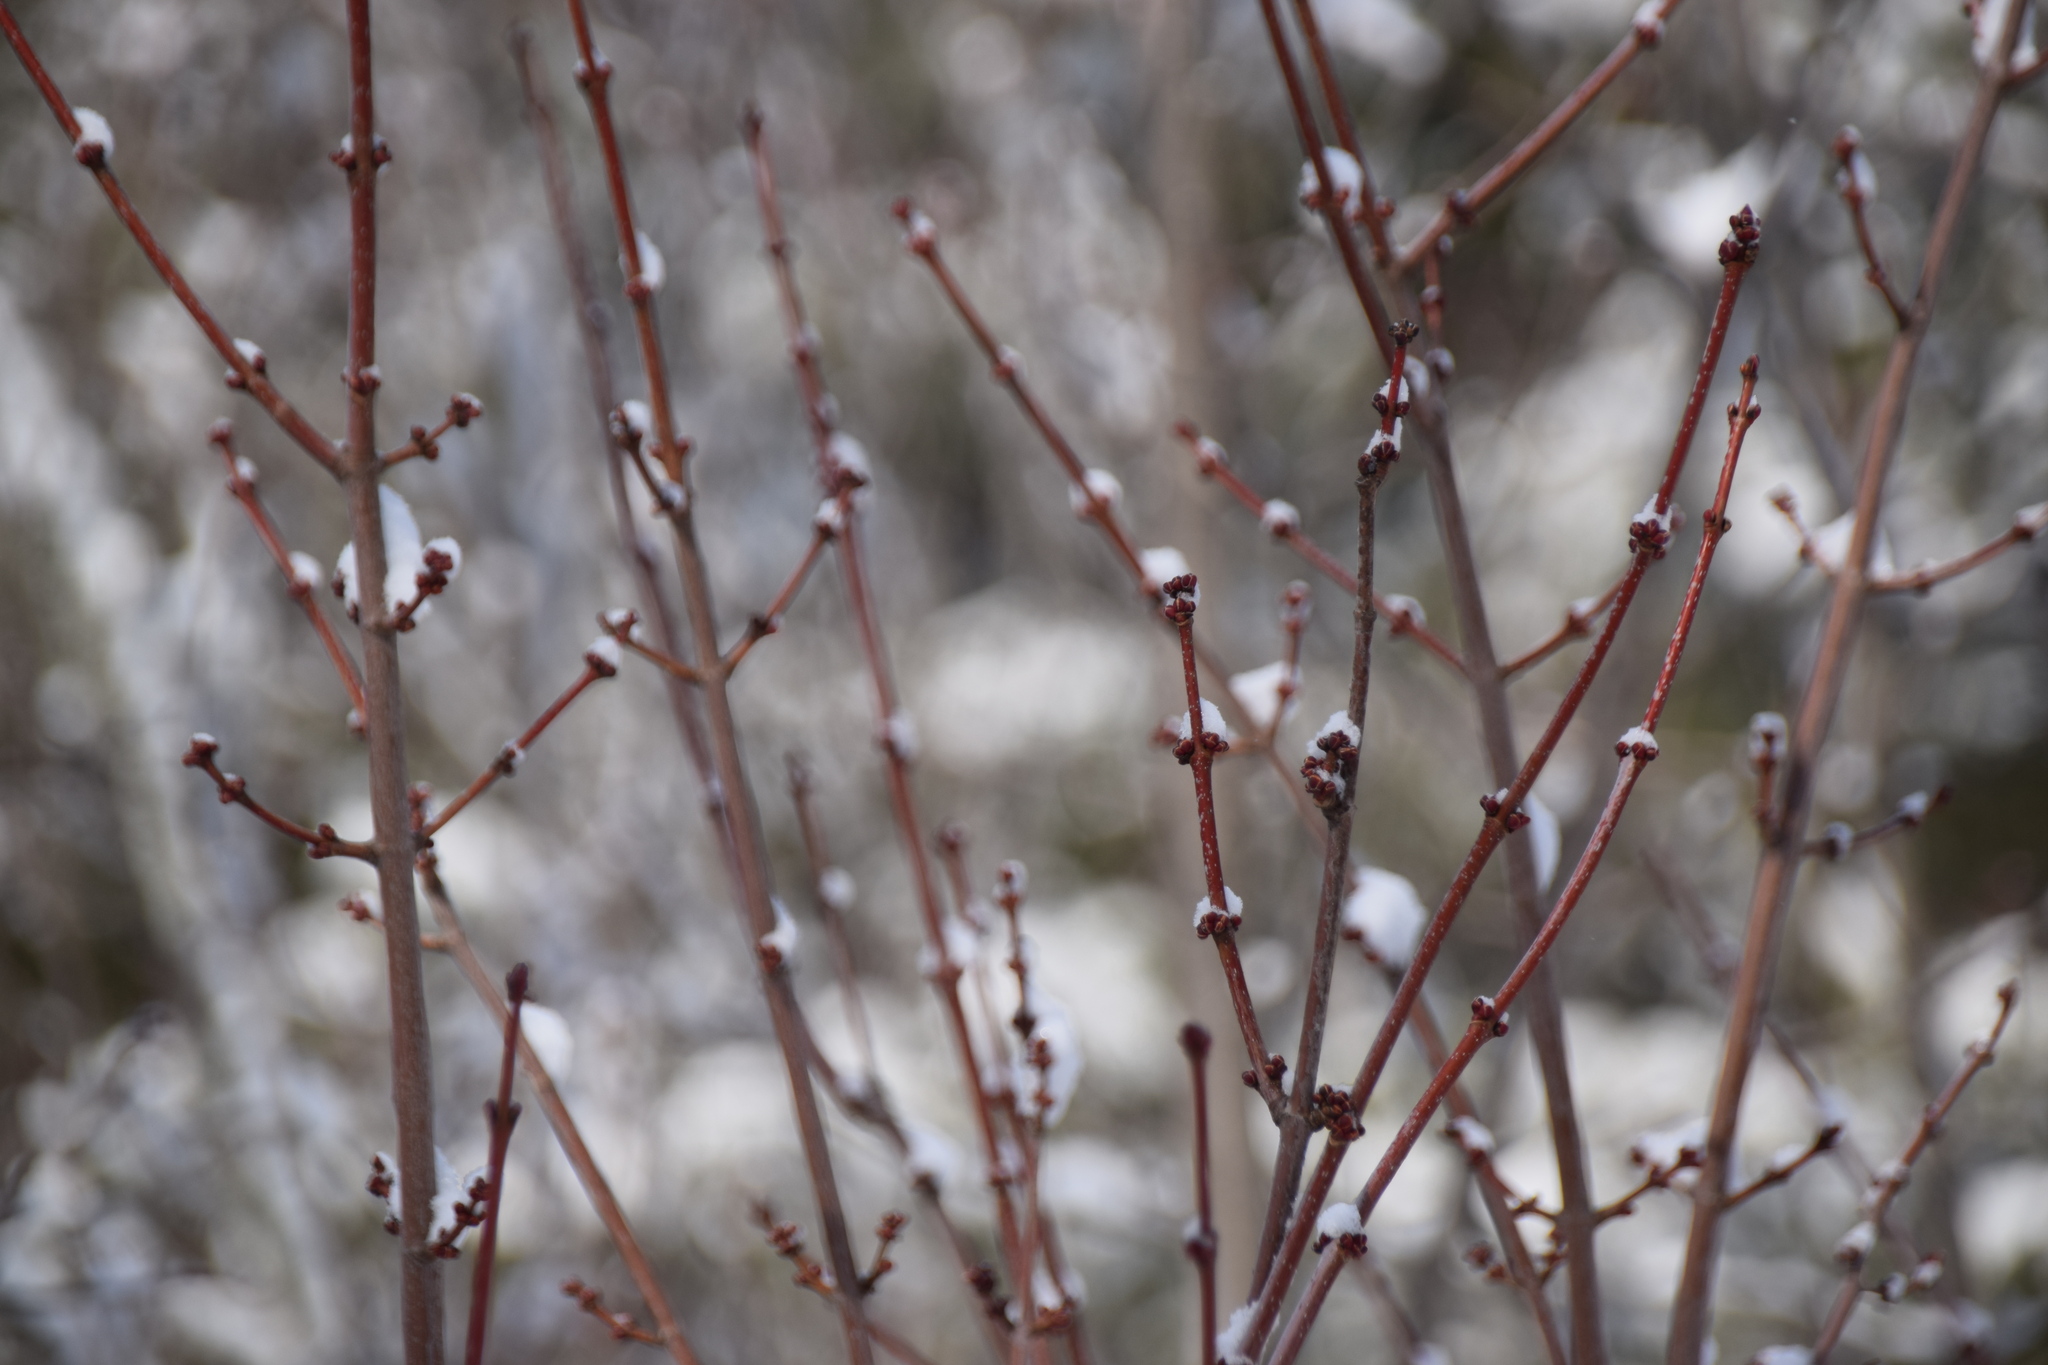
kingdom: Plantae
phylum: Tracheophyta
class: Magnoliopsida
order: Sapindales
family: Sapindaceae
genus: Acer
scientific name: Acer rubrum
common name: Red maple
